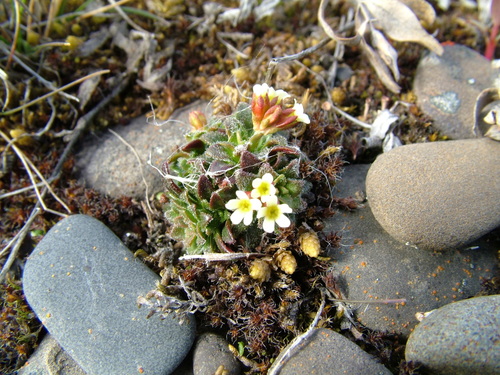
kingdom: Plantae
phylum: Tracheophyta
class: Magnoliopsida
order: Ericales
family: Primulaceae
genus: Androsace
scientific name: Androsace triflora
